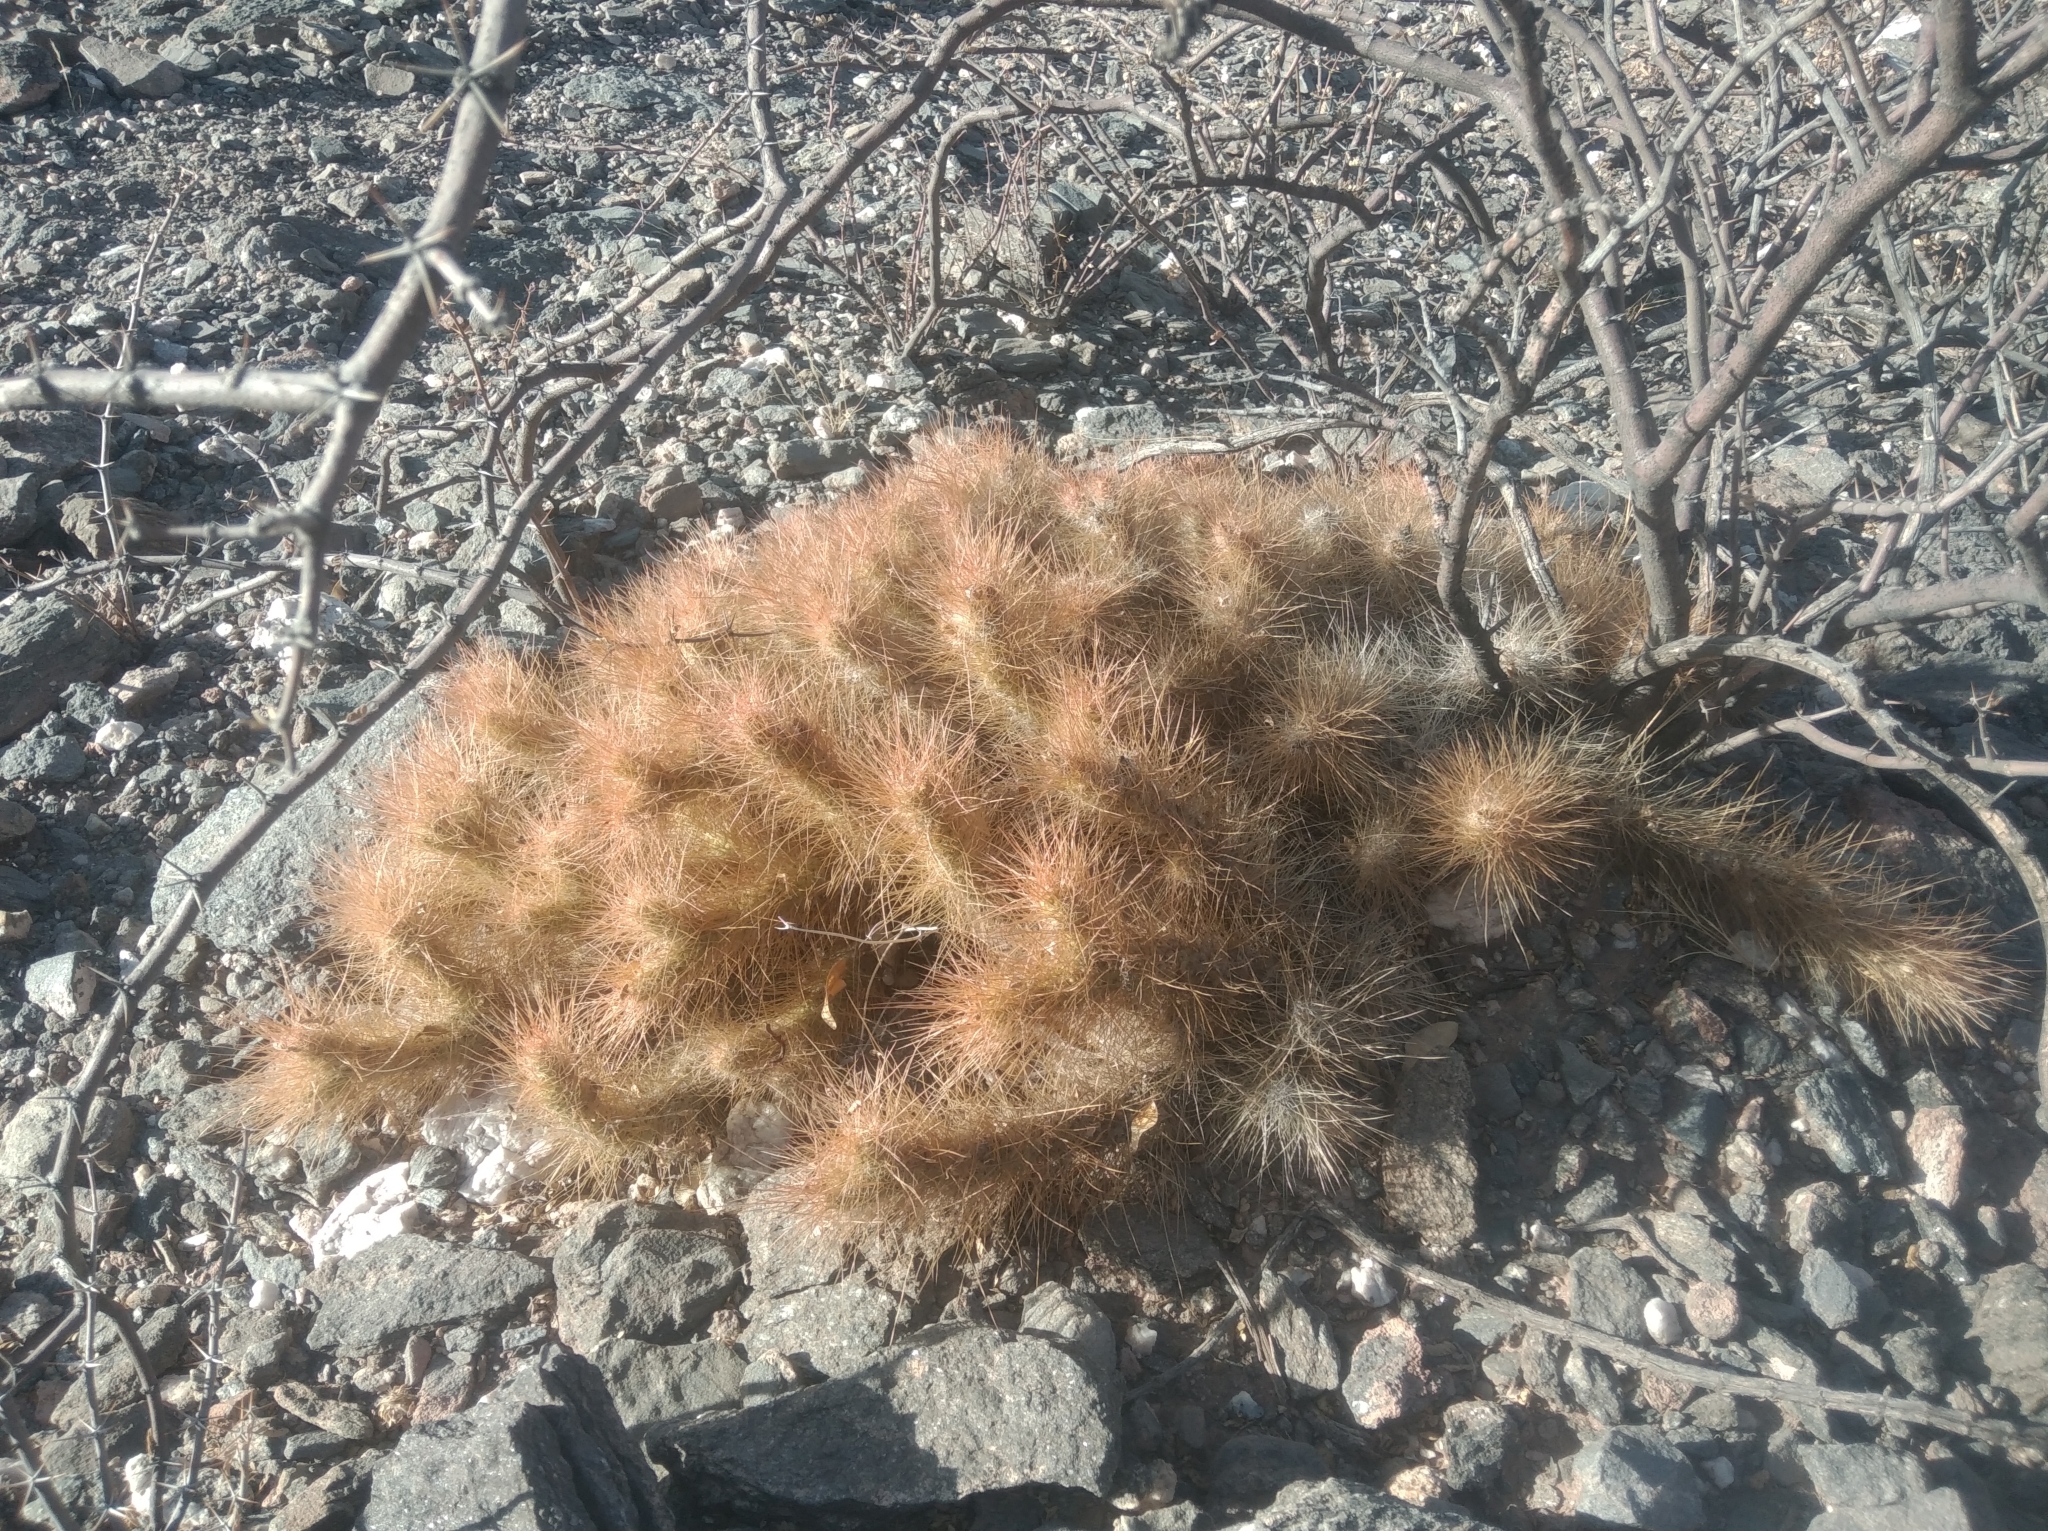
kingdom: Plantae
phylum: Tracheophyta
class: Magnoliopsida
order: Caryophyllales
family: Cactaceae
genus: Tephrocactus
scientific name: Tephrocactus weberi
